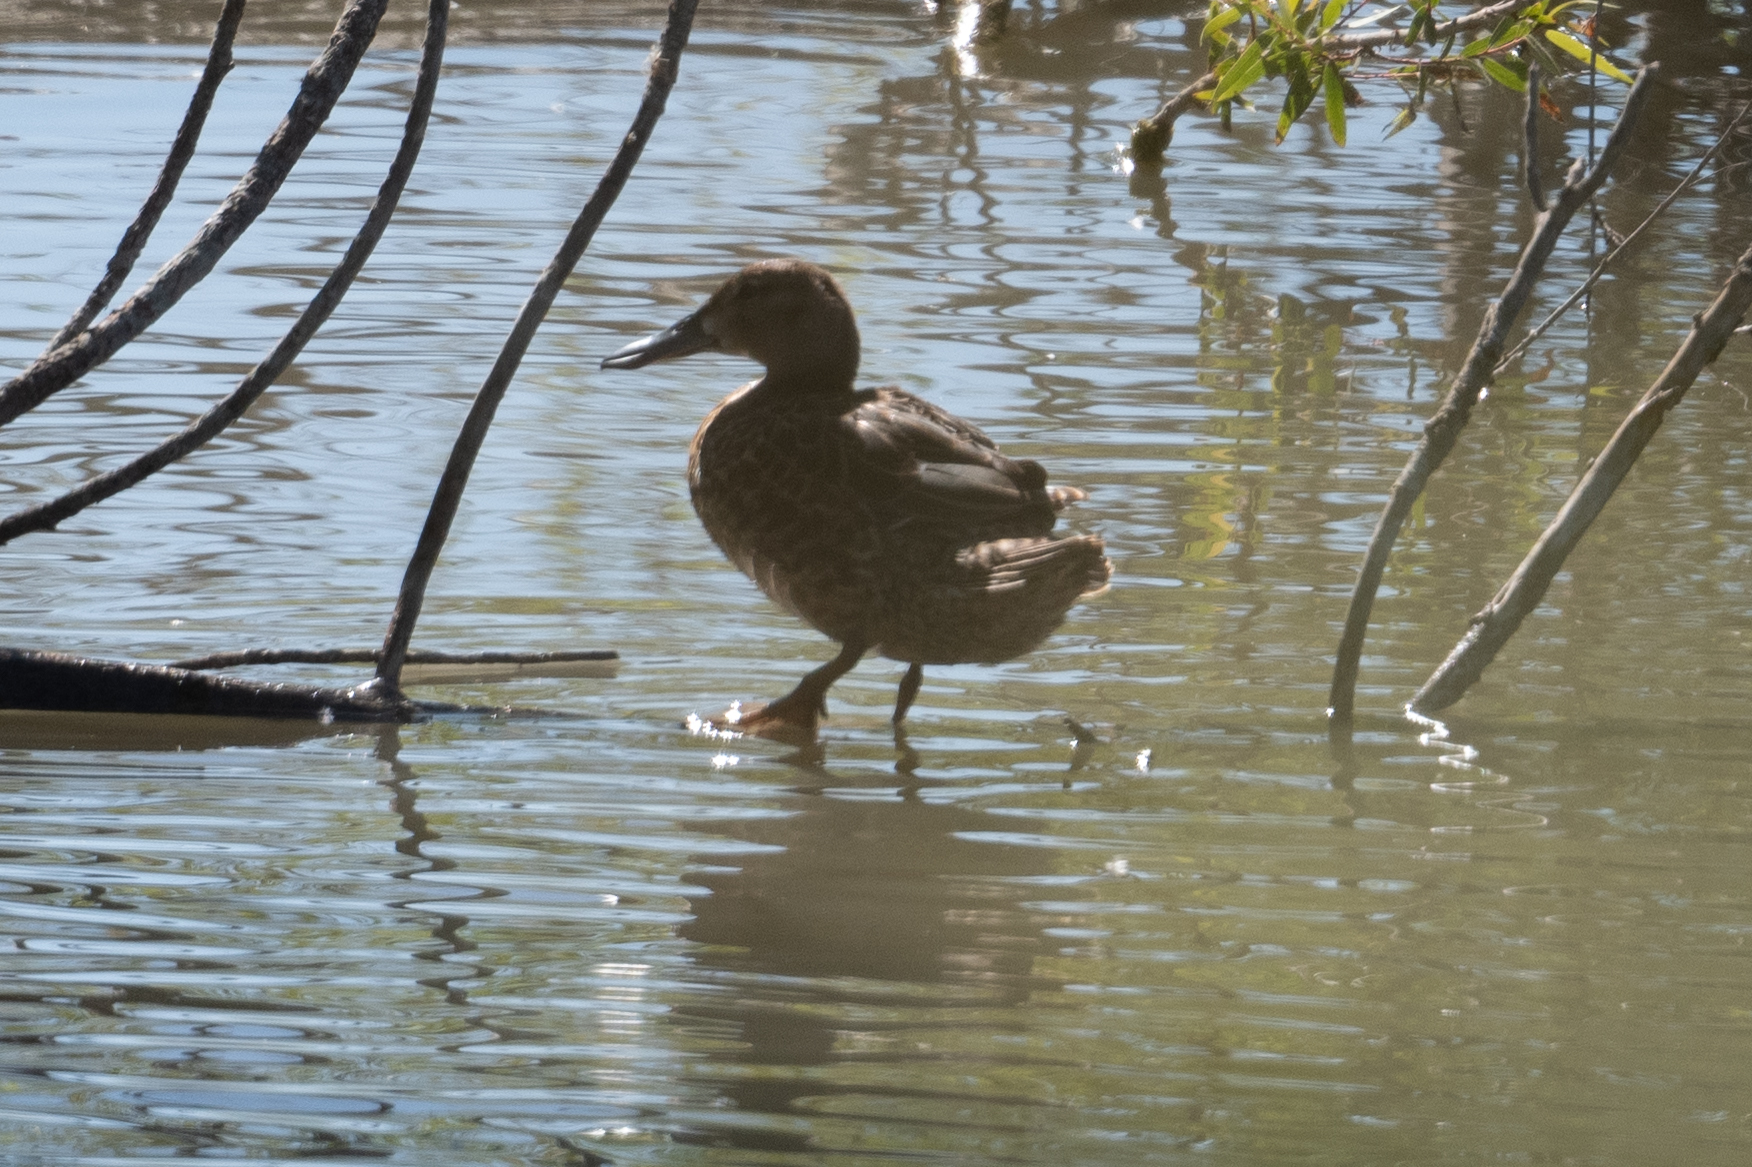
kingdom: Animalia
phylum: Chordata
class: Aves
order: Anseriformes
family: Anatidae
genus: Spatula
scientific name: Spatula cyanoptera
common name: Cinnamon teal
